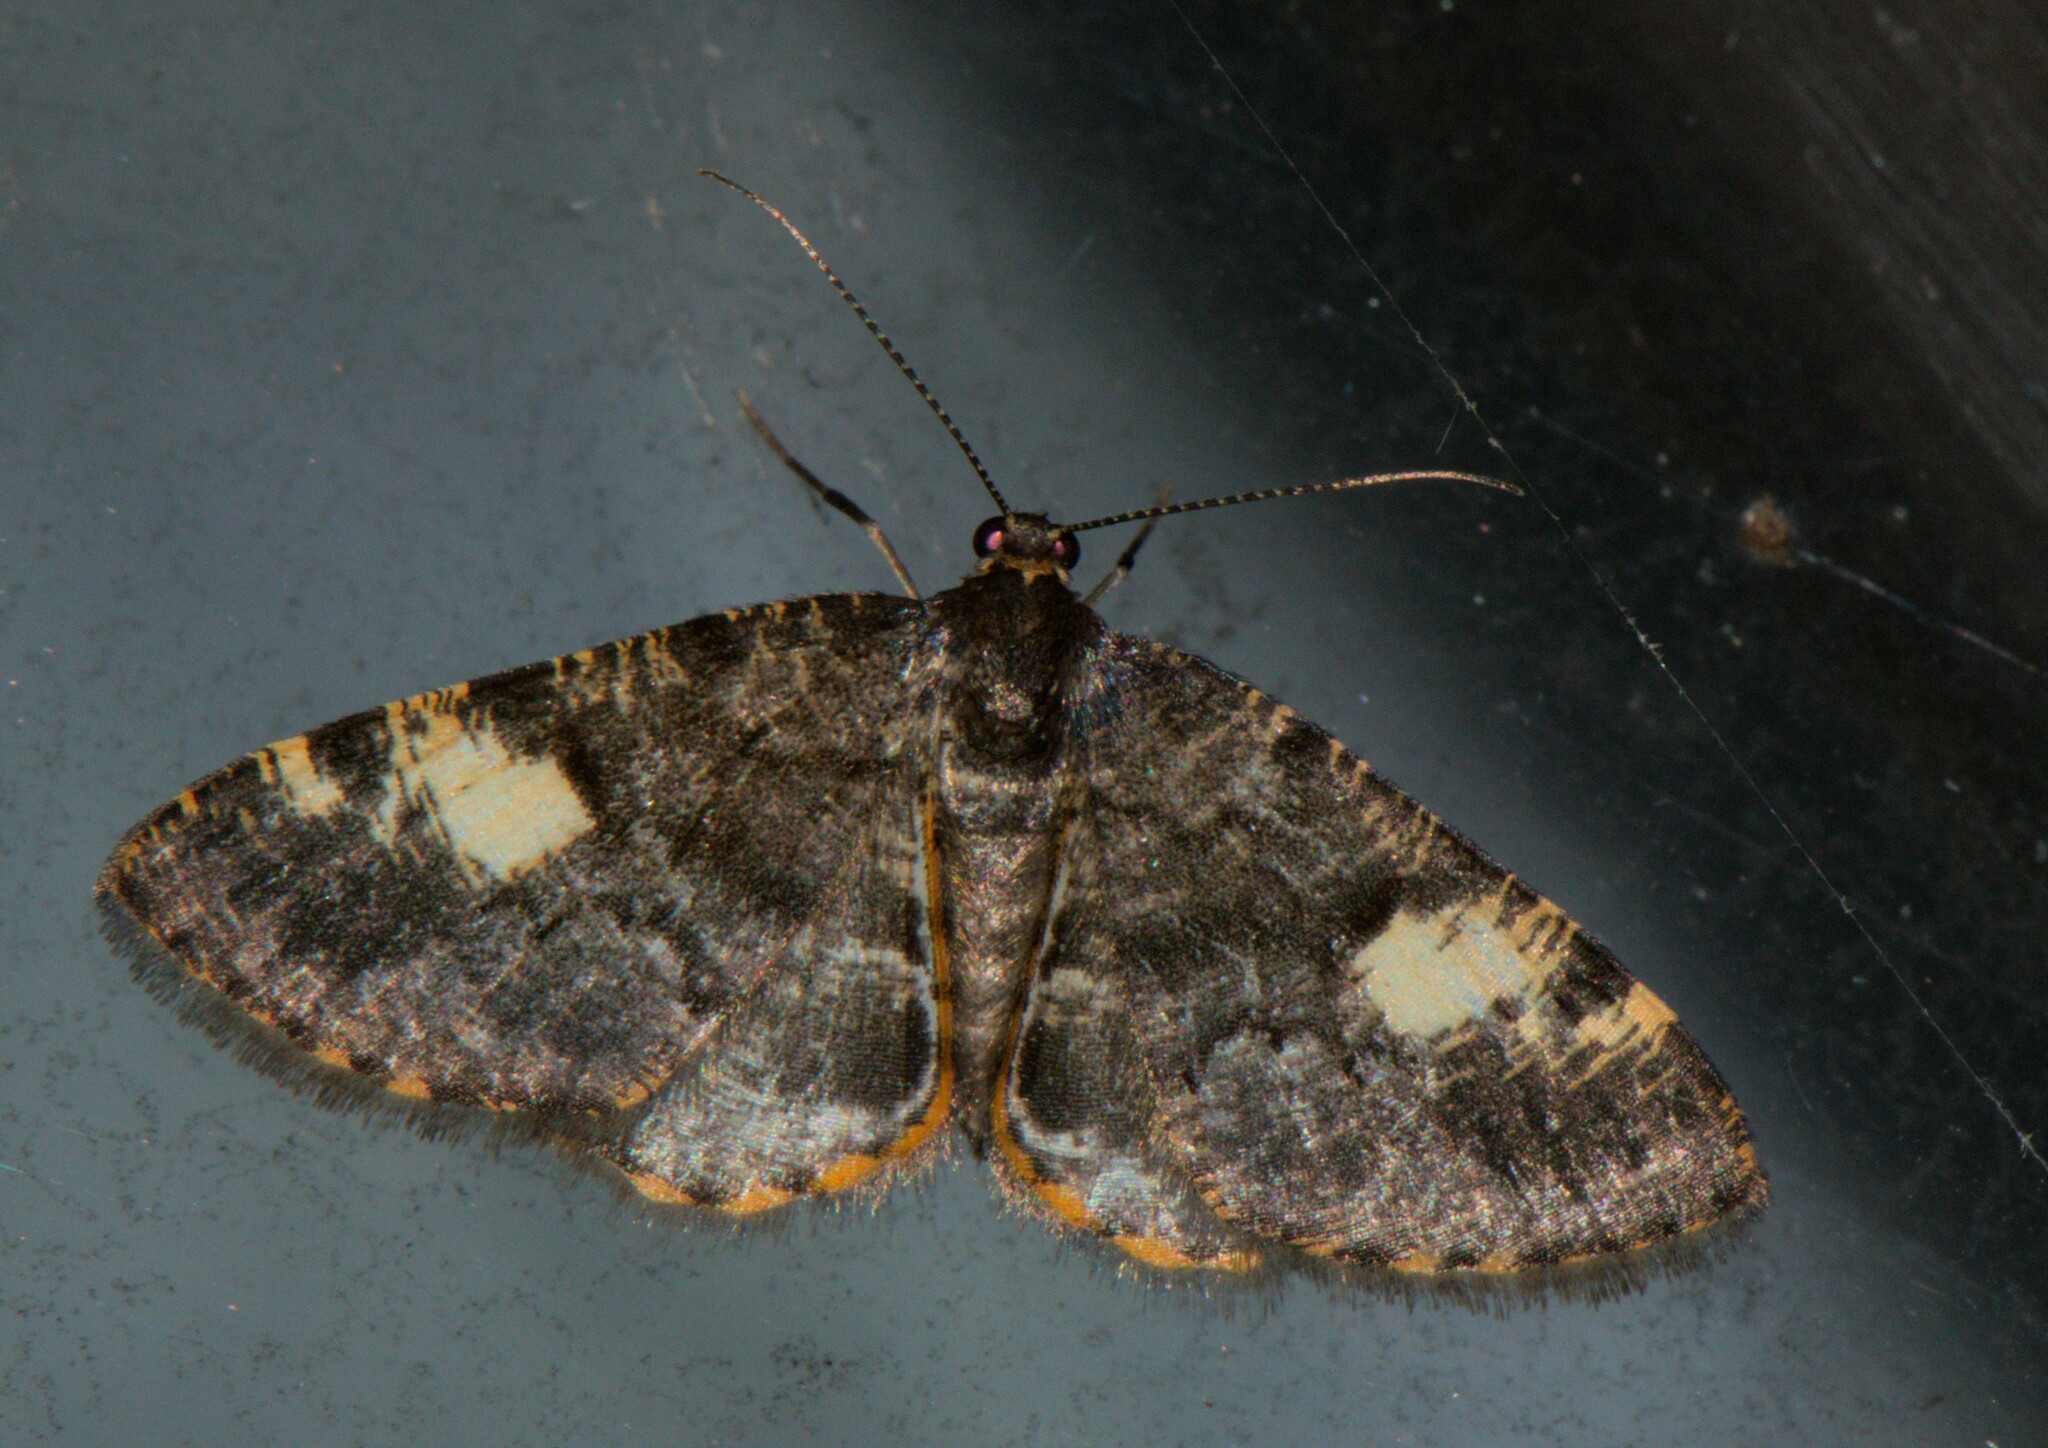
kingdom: Animalia
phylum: Arthropoda
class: Insecta
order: Lepidoptera
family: Geometridae
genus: Sysstema
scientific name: Sysstema semicirculata
